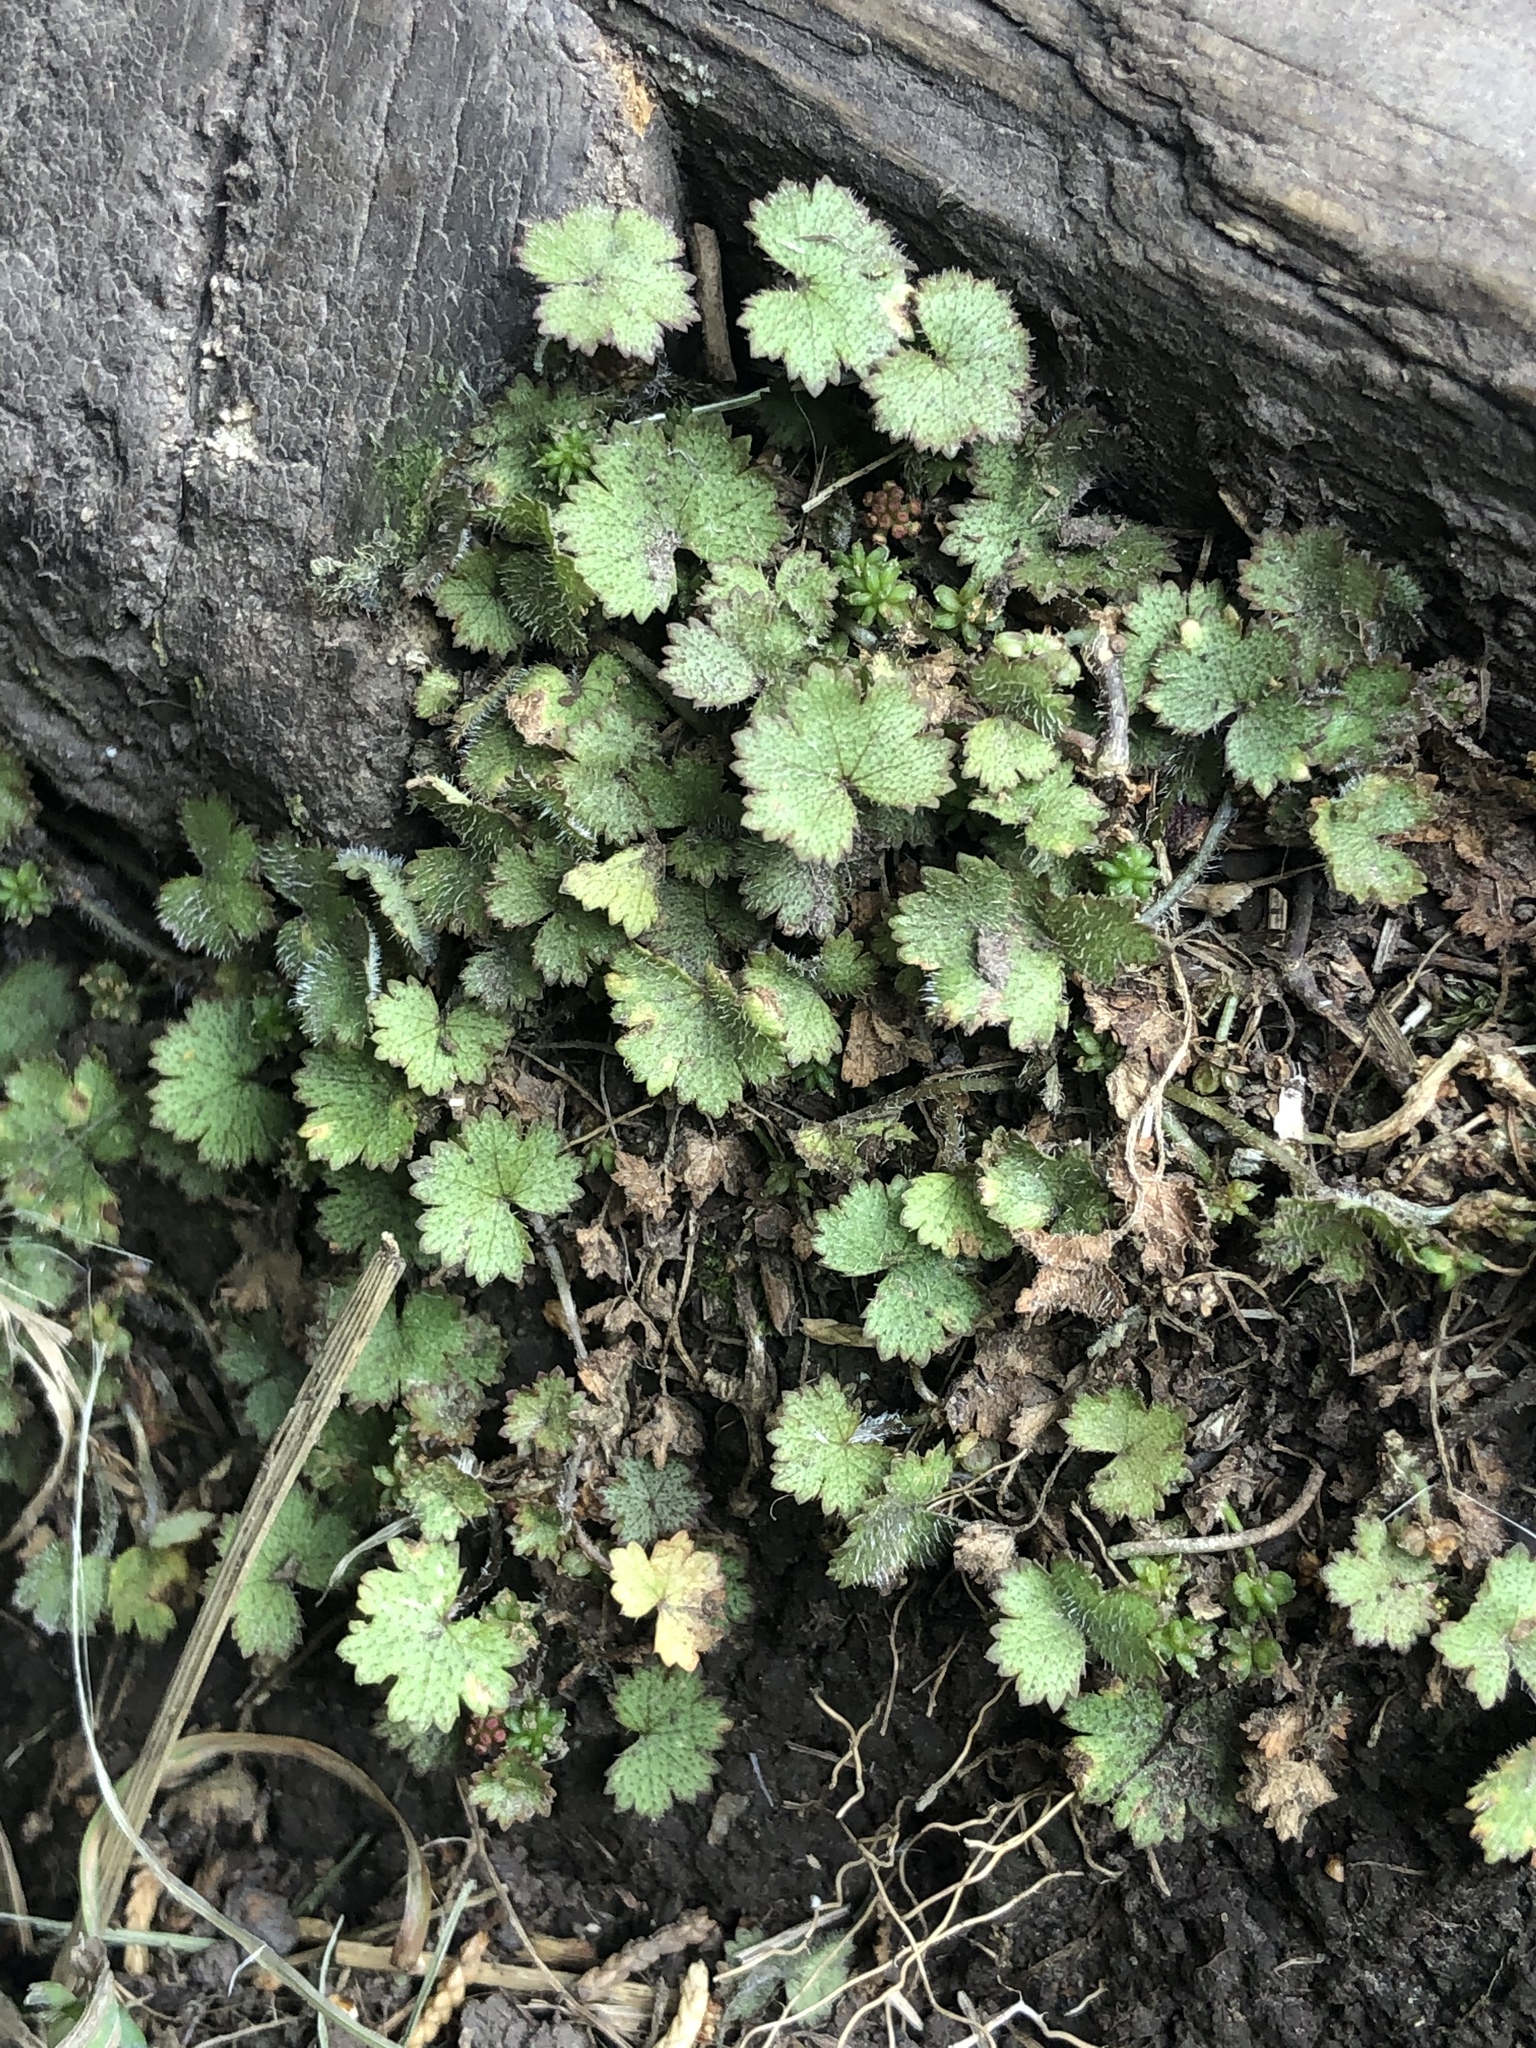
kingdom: Plantae
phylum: Tracheophyta
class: Magnoliopsida
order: Apiales
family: Araliaceae
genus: Hydrocotyle
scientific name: Hydrocotyle moschata
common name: Hairy pennywort
